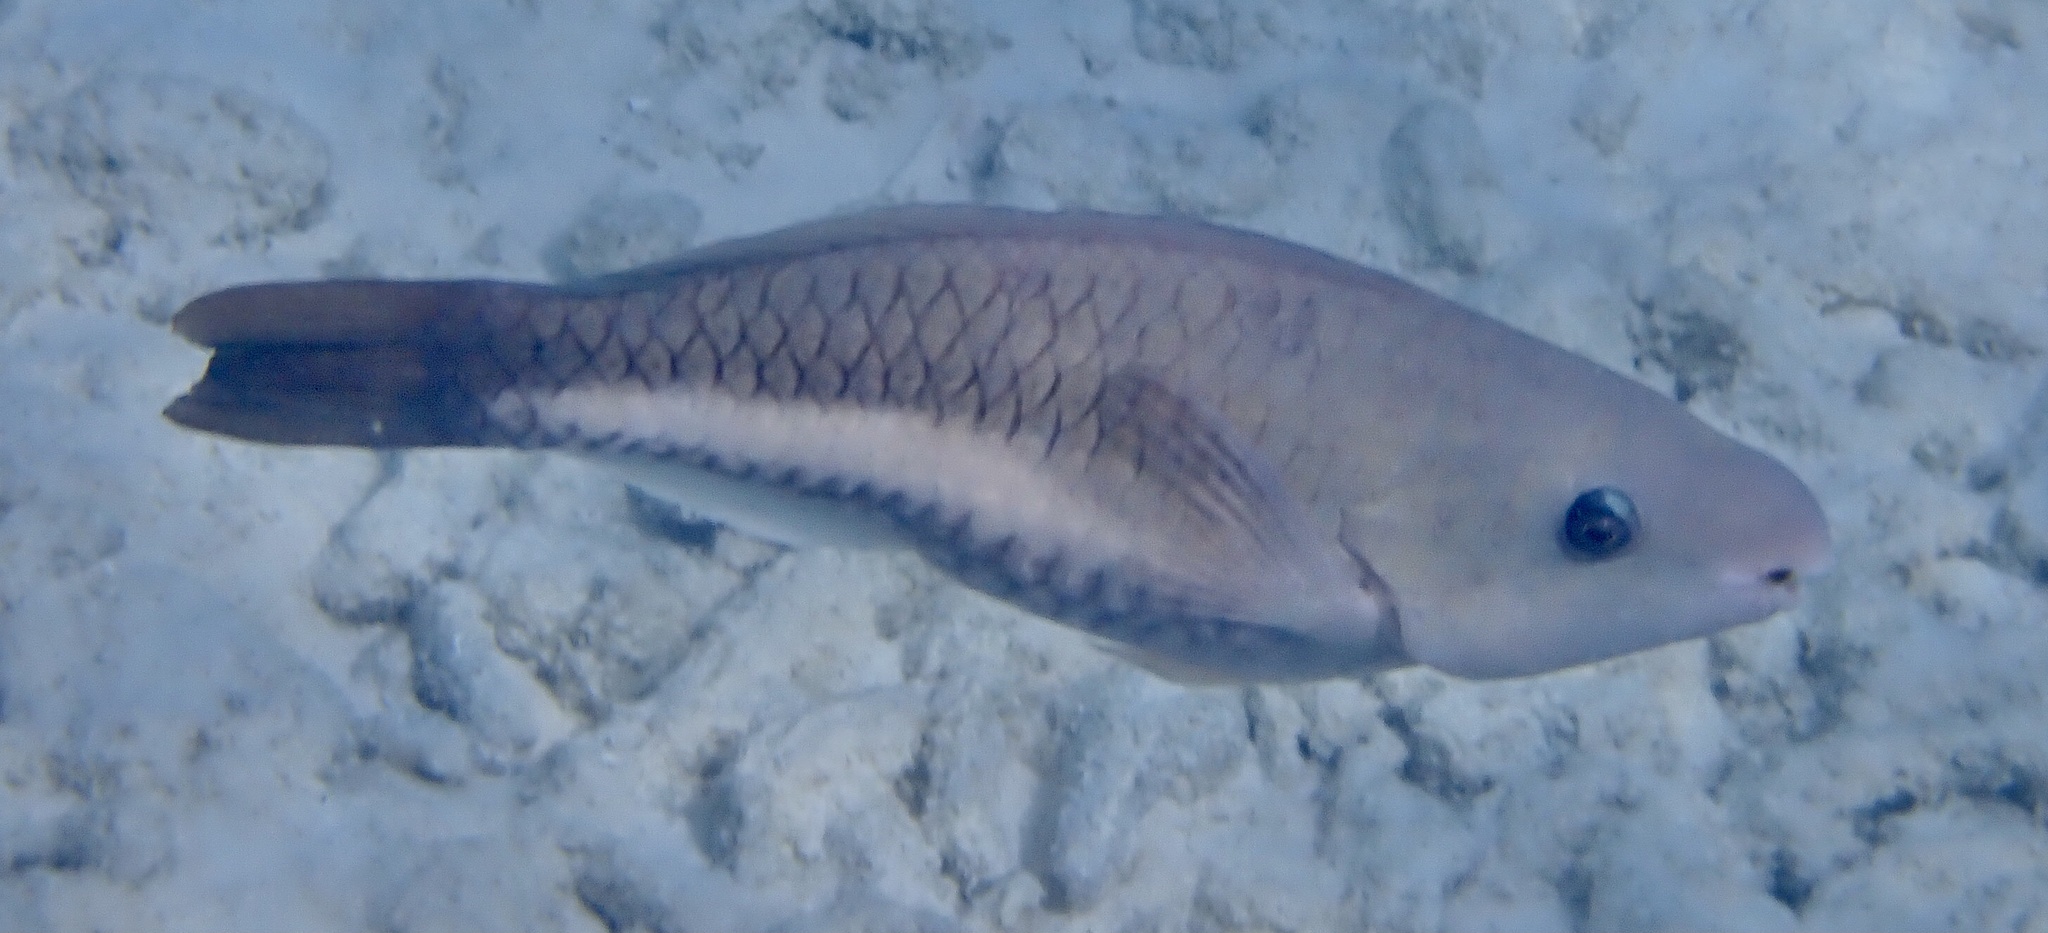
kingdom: Animalia
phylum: Chordata
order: Perciformes
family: Scaridae
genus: Scarus
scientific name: Scarus vetula
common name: Queen parrotfish
